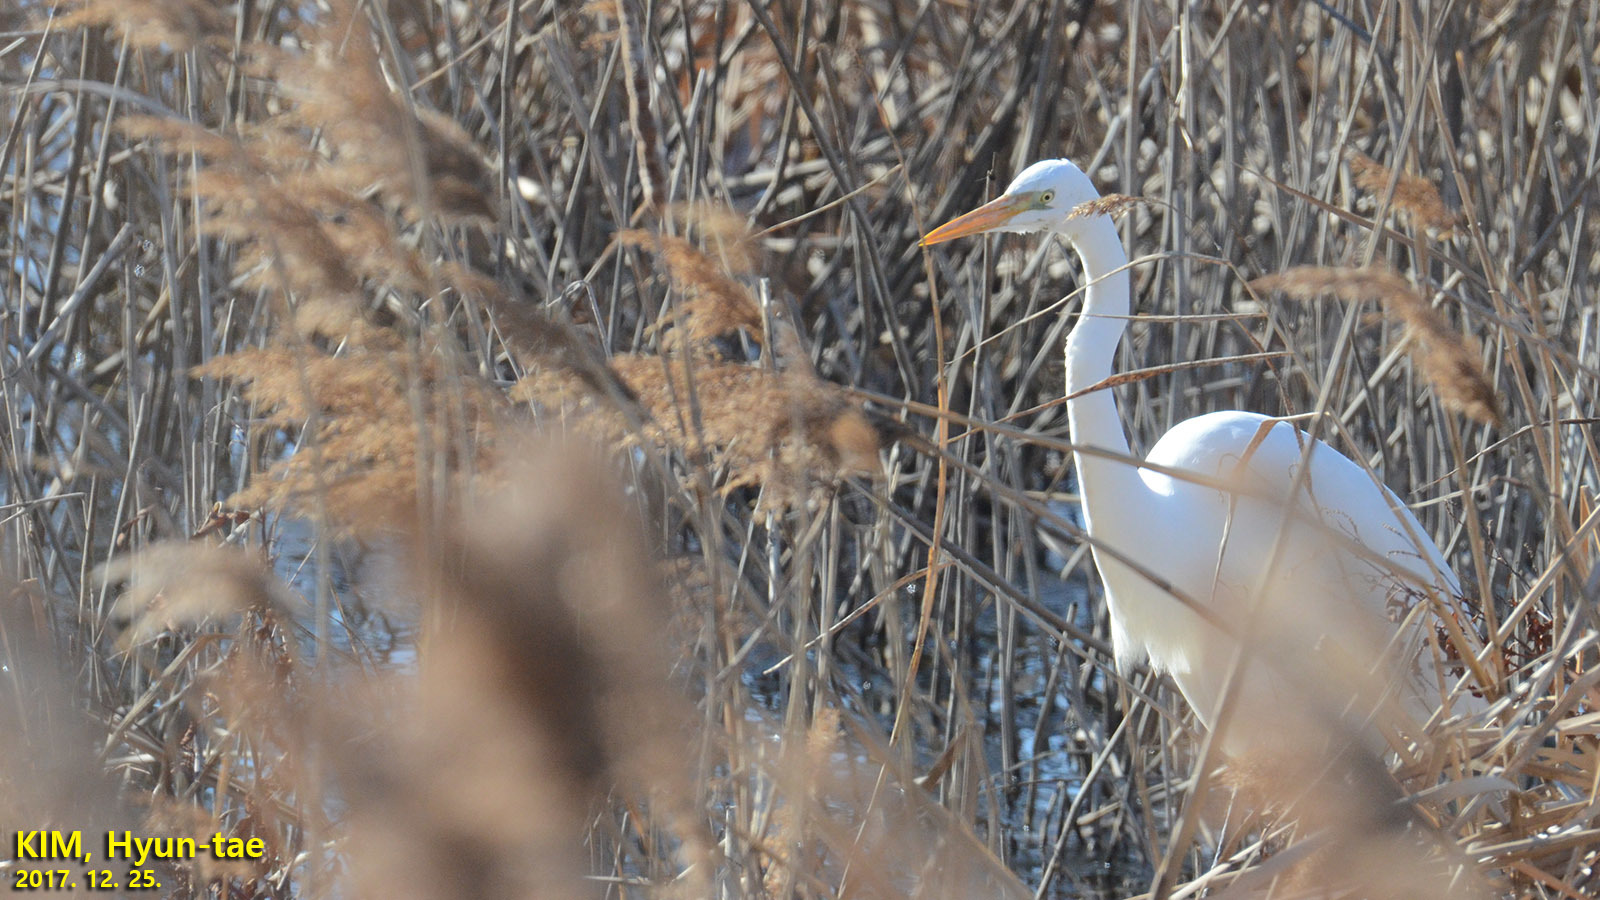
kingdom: Animalia
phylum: Chordata
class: Aves
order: Pelecaniformes
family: Ardeidae
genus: Ardea
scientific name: Ardea alba
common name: Great egret
